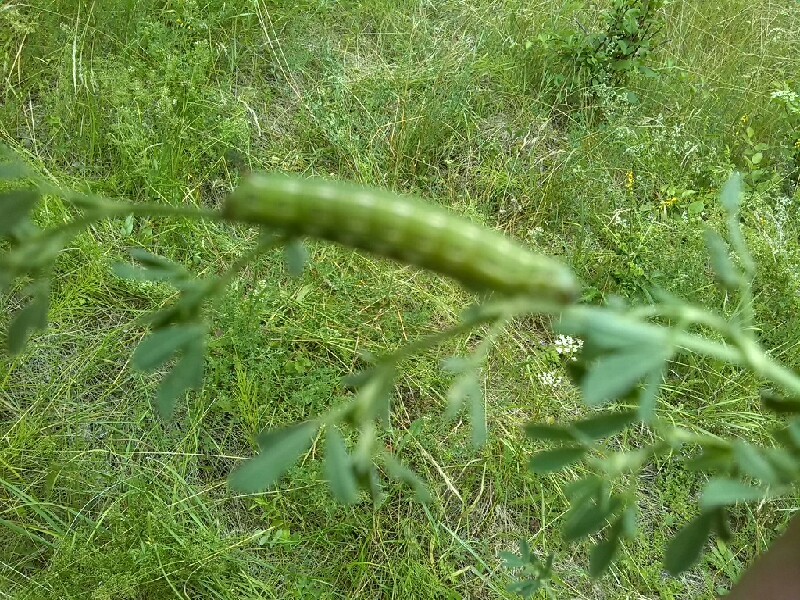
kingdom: Animalia
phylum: Arthropoda
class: Insecta
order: Lepidoptera
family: Sphingidae
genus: Hyles
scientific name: Hyles gallii
